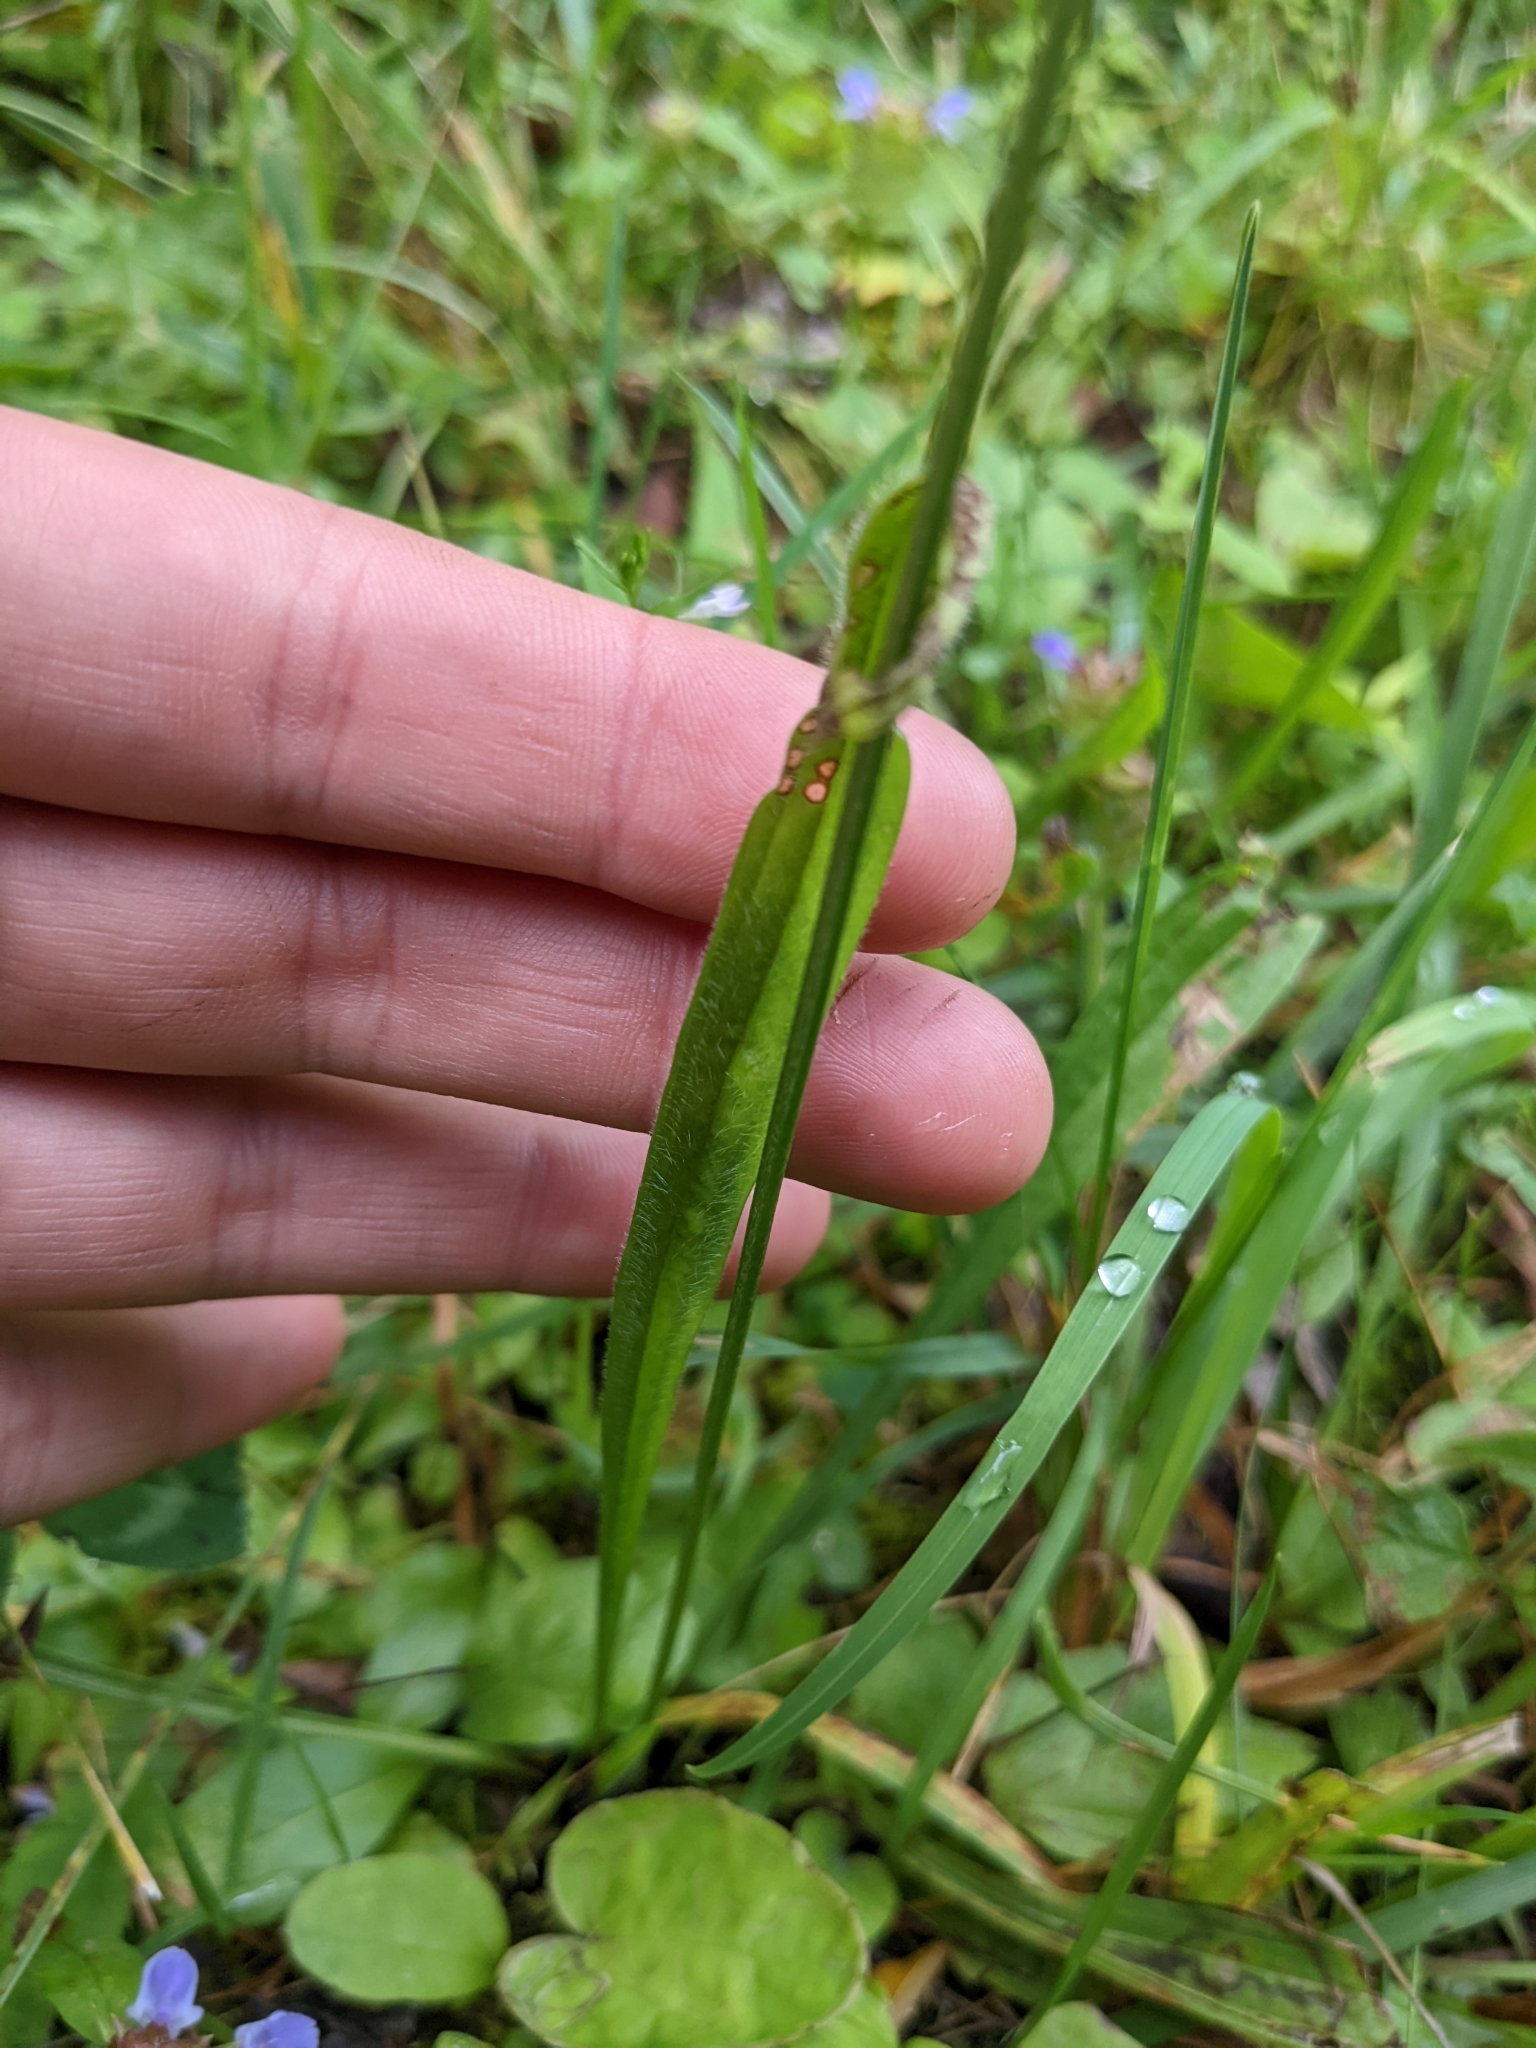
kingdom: Plantae
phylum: Tracheophyta
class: Magnoliopsida
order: Lamiales
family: Plantaginaceae
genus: Plantago
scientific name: Plantago lanceolata
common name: Ribwort plantain
